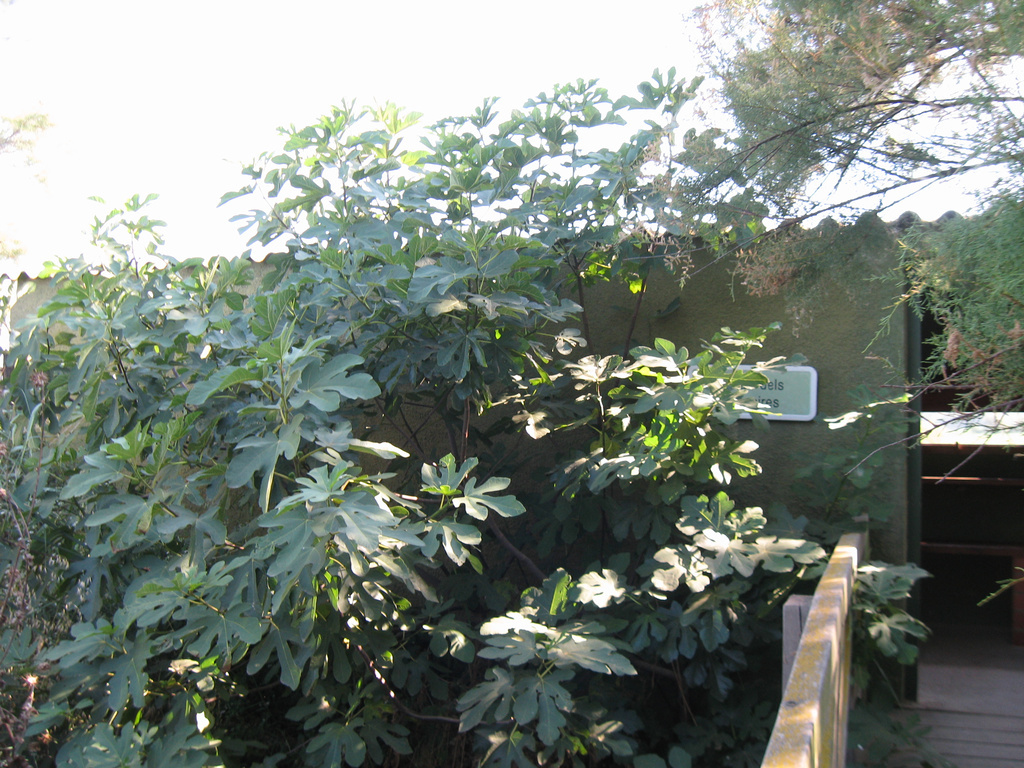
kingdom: Plantae
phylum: Tracheophyta
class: Magnoliopsida
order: Rosales
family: Moraceae
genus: Ficus
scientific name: Ficus carica
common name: Fig
